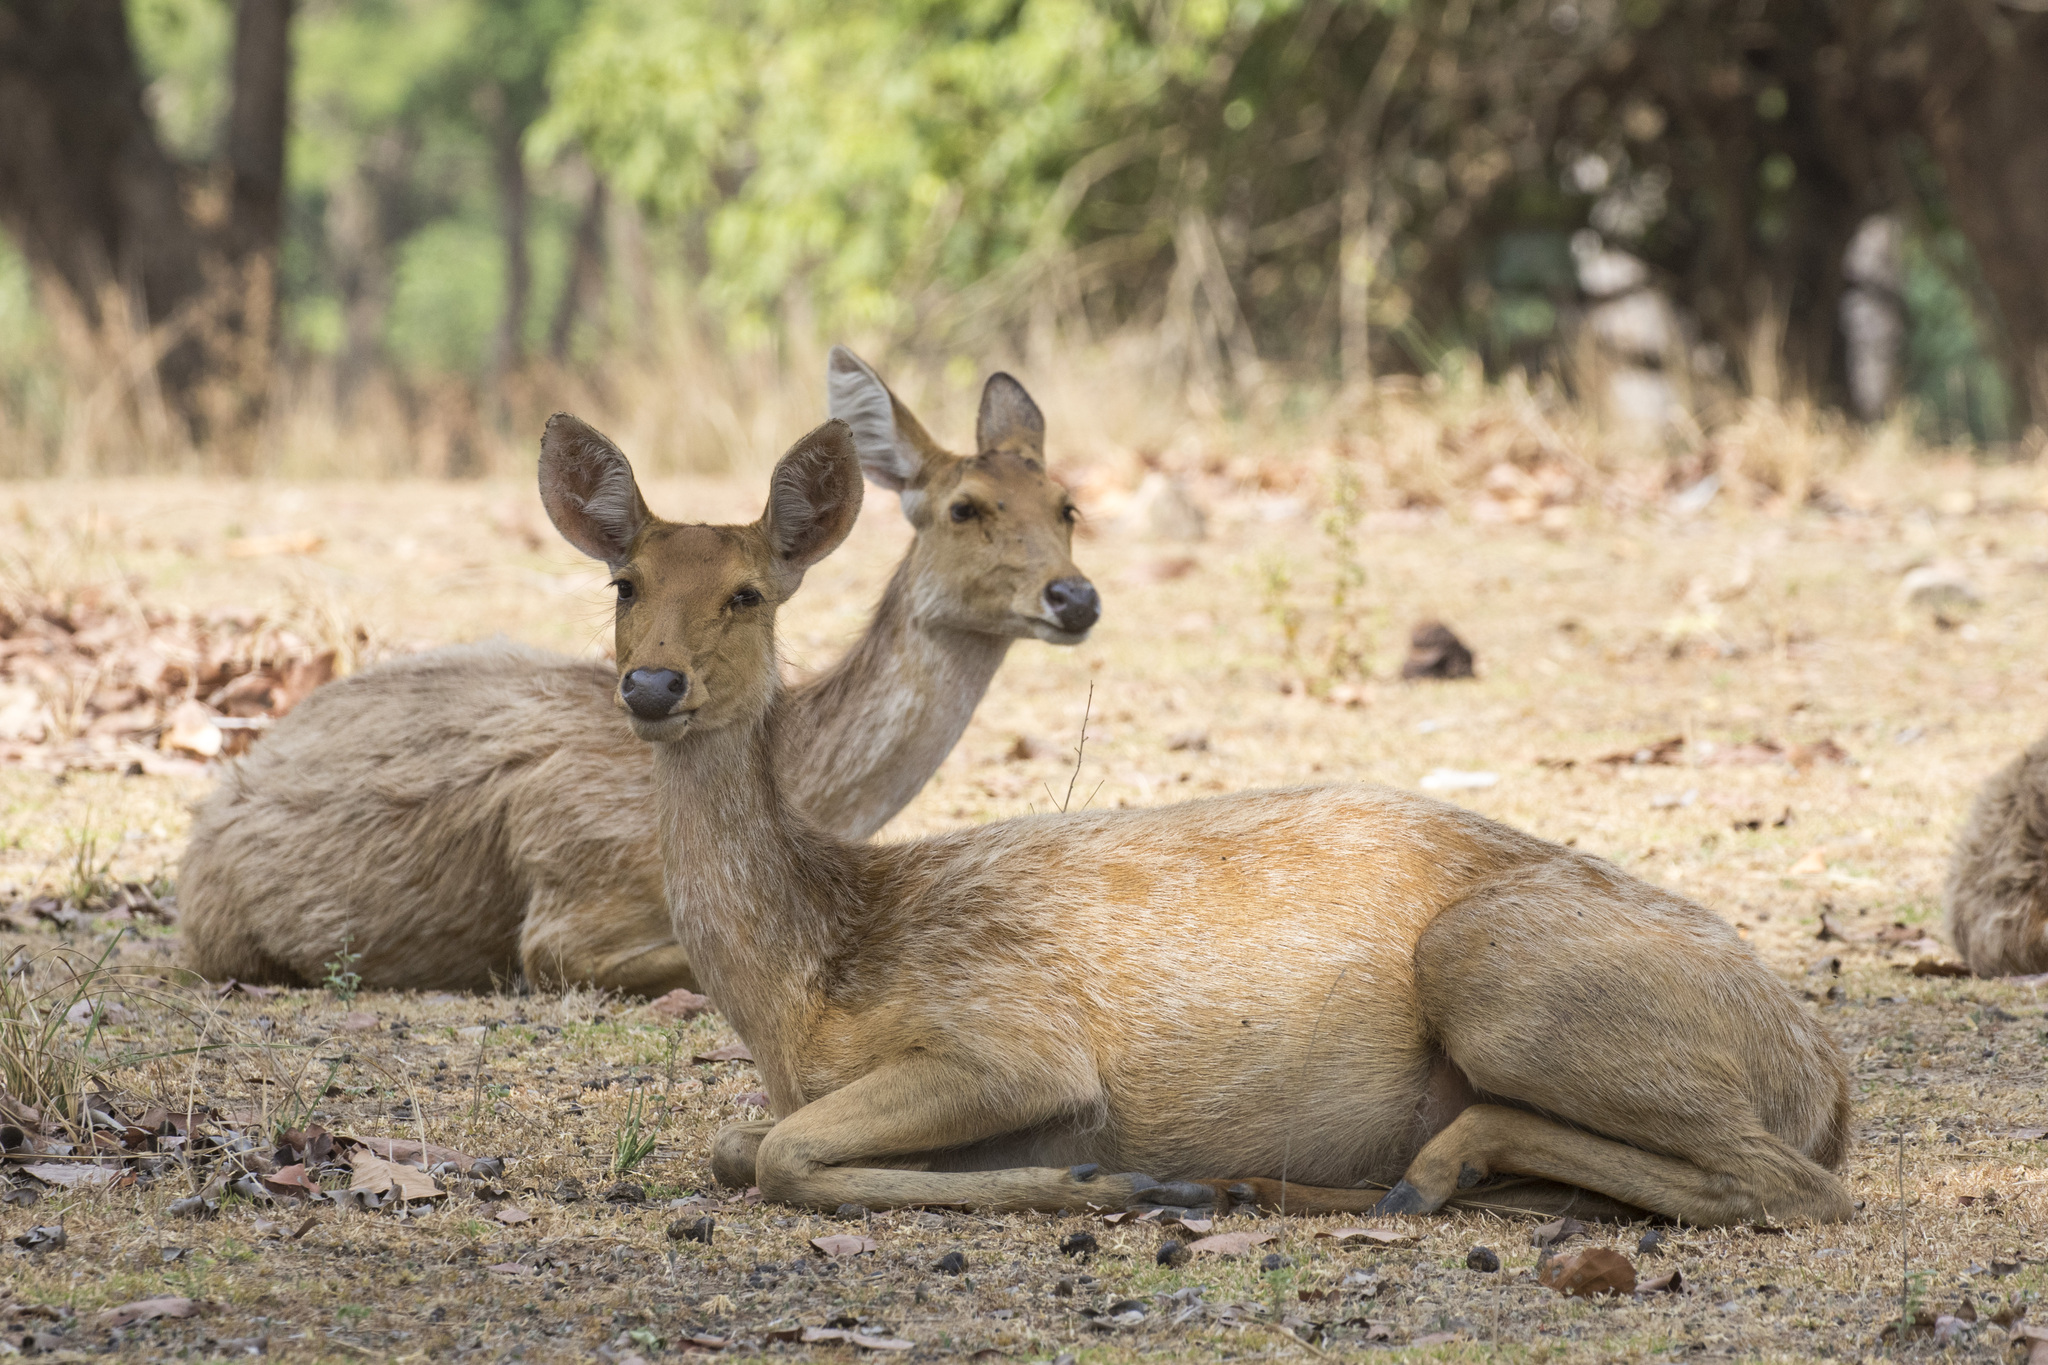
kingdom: Animalia
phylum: Chordata
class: Mammalia
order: Artiodactyla
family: Cervidae
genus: Rucervus
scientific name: Rucervus duvaucelii
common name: Barasingha
